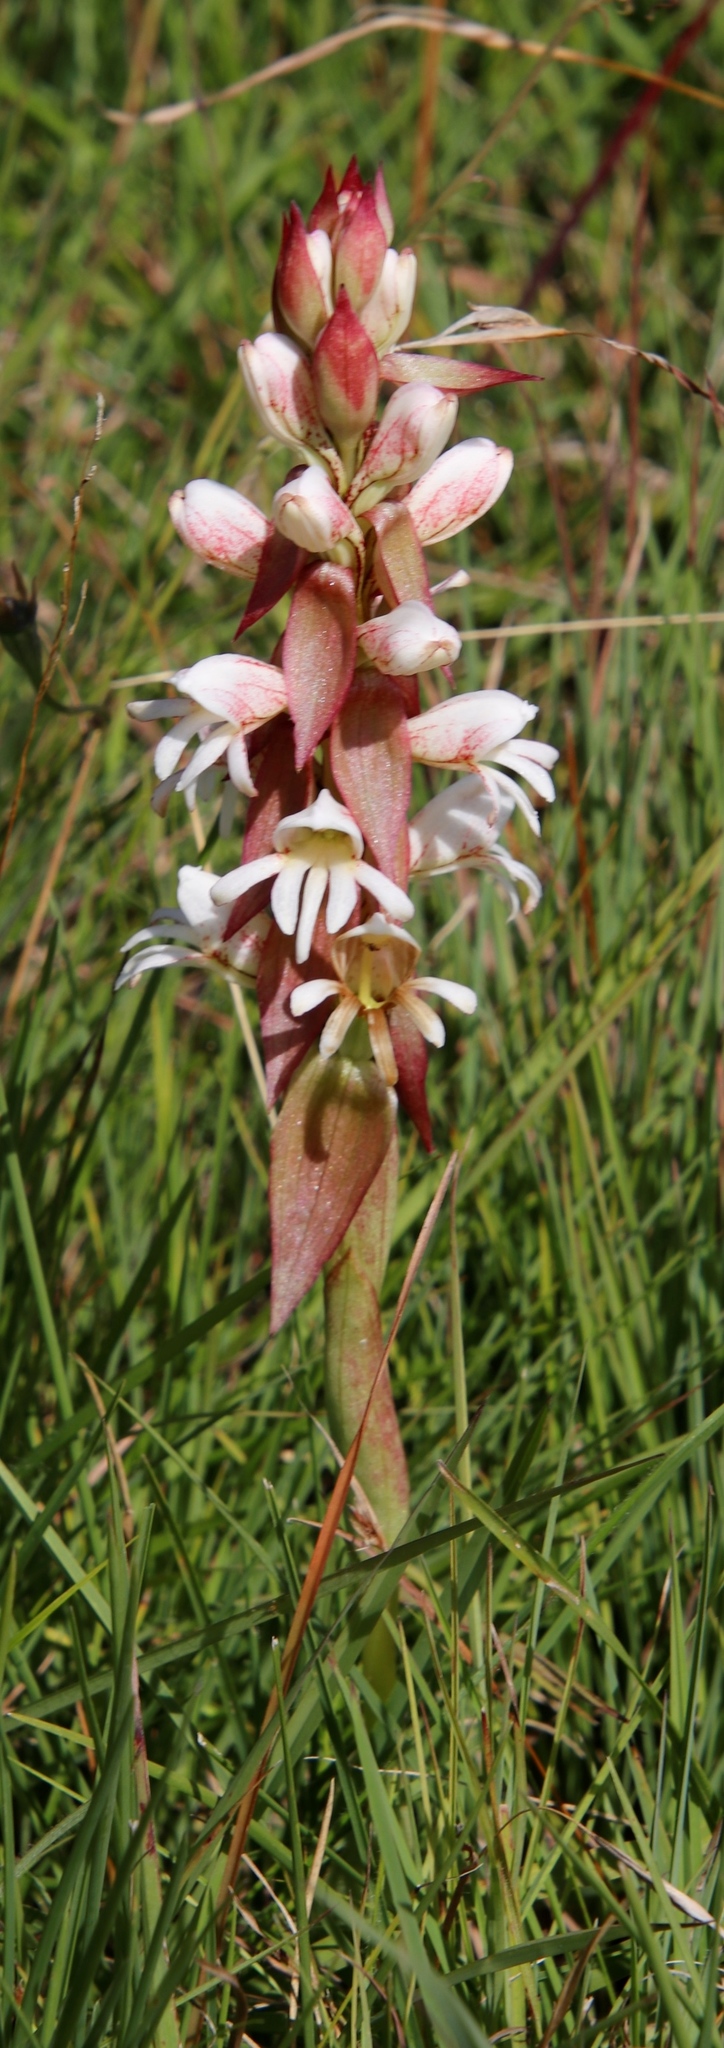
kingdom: Plantae
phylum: Tracheophyta
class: Liliopsida
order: Asparagales
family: Orchidaceae
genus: Satyrium
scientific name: Satyrium sphaerocarpum
